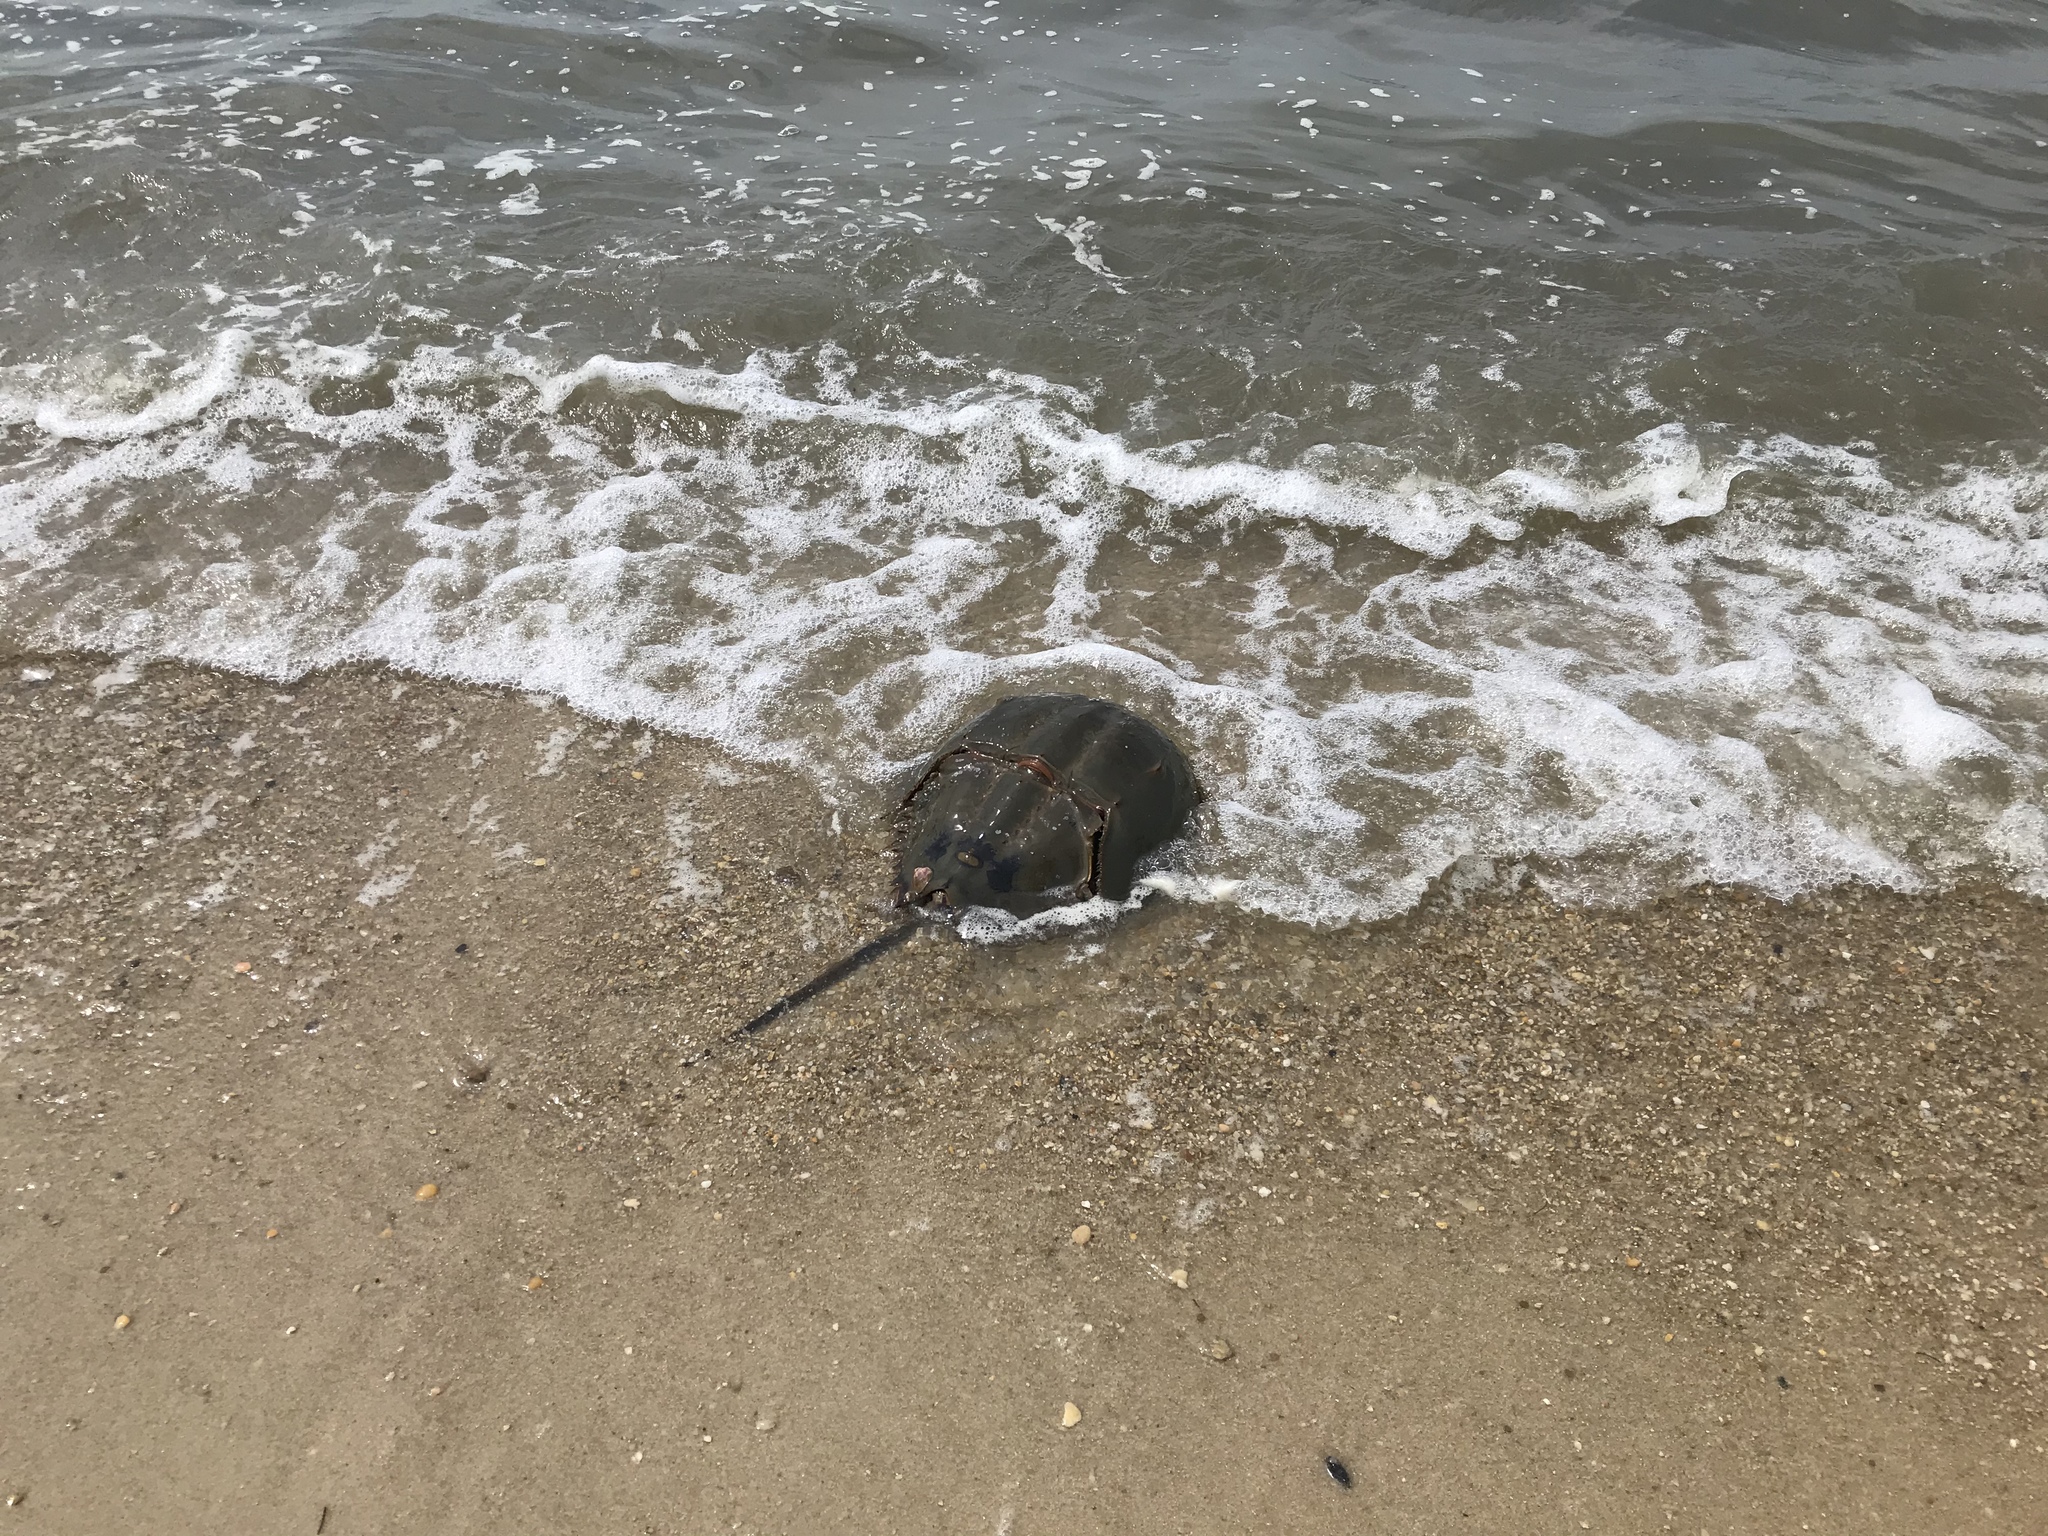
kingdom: Animalia
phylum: Arthropoda
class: Merostomata
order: Xiphosurida
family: Limulidae
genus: Limulus
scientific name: Limulus polyphemus
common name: Horseshoe crab
